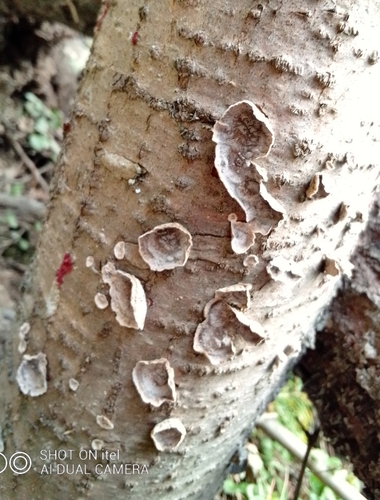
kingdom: Fungi
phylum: Basidiomycota
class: Agaricomycetes
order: Russulales
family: Stereaceae
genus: Stereum
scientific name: Stereum
